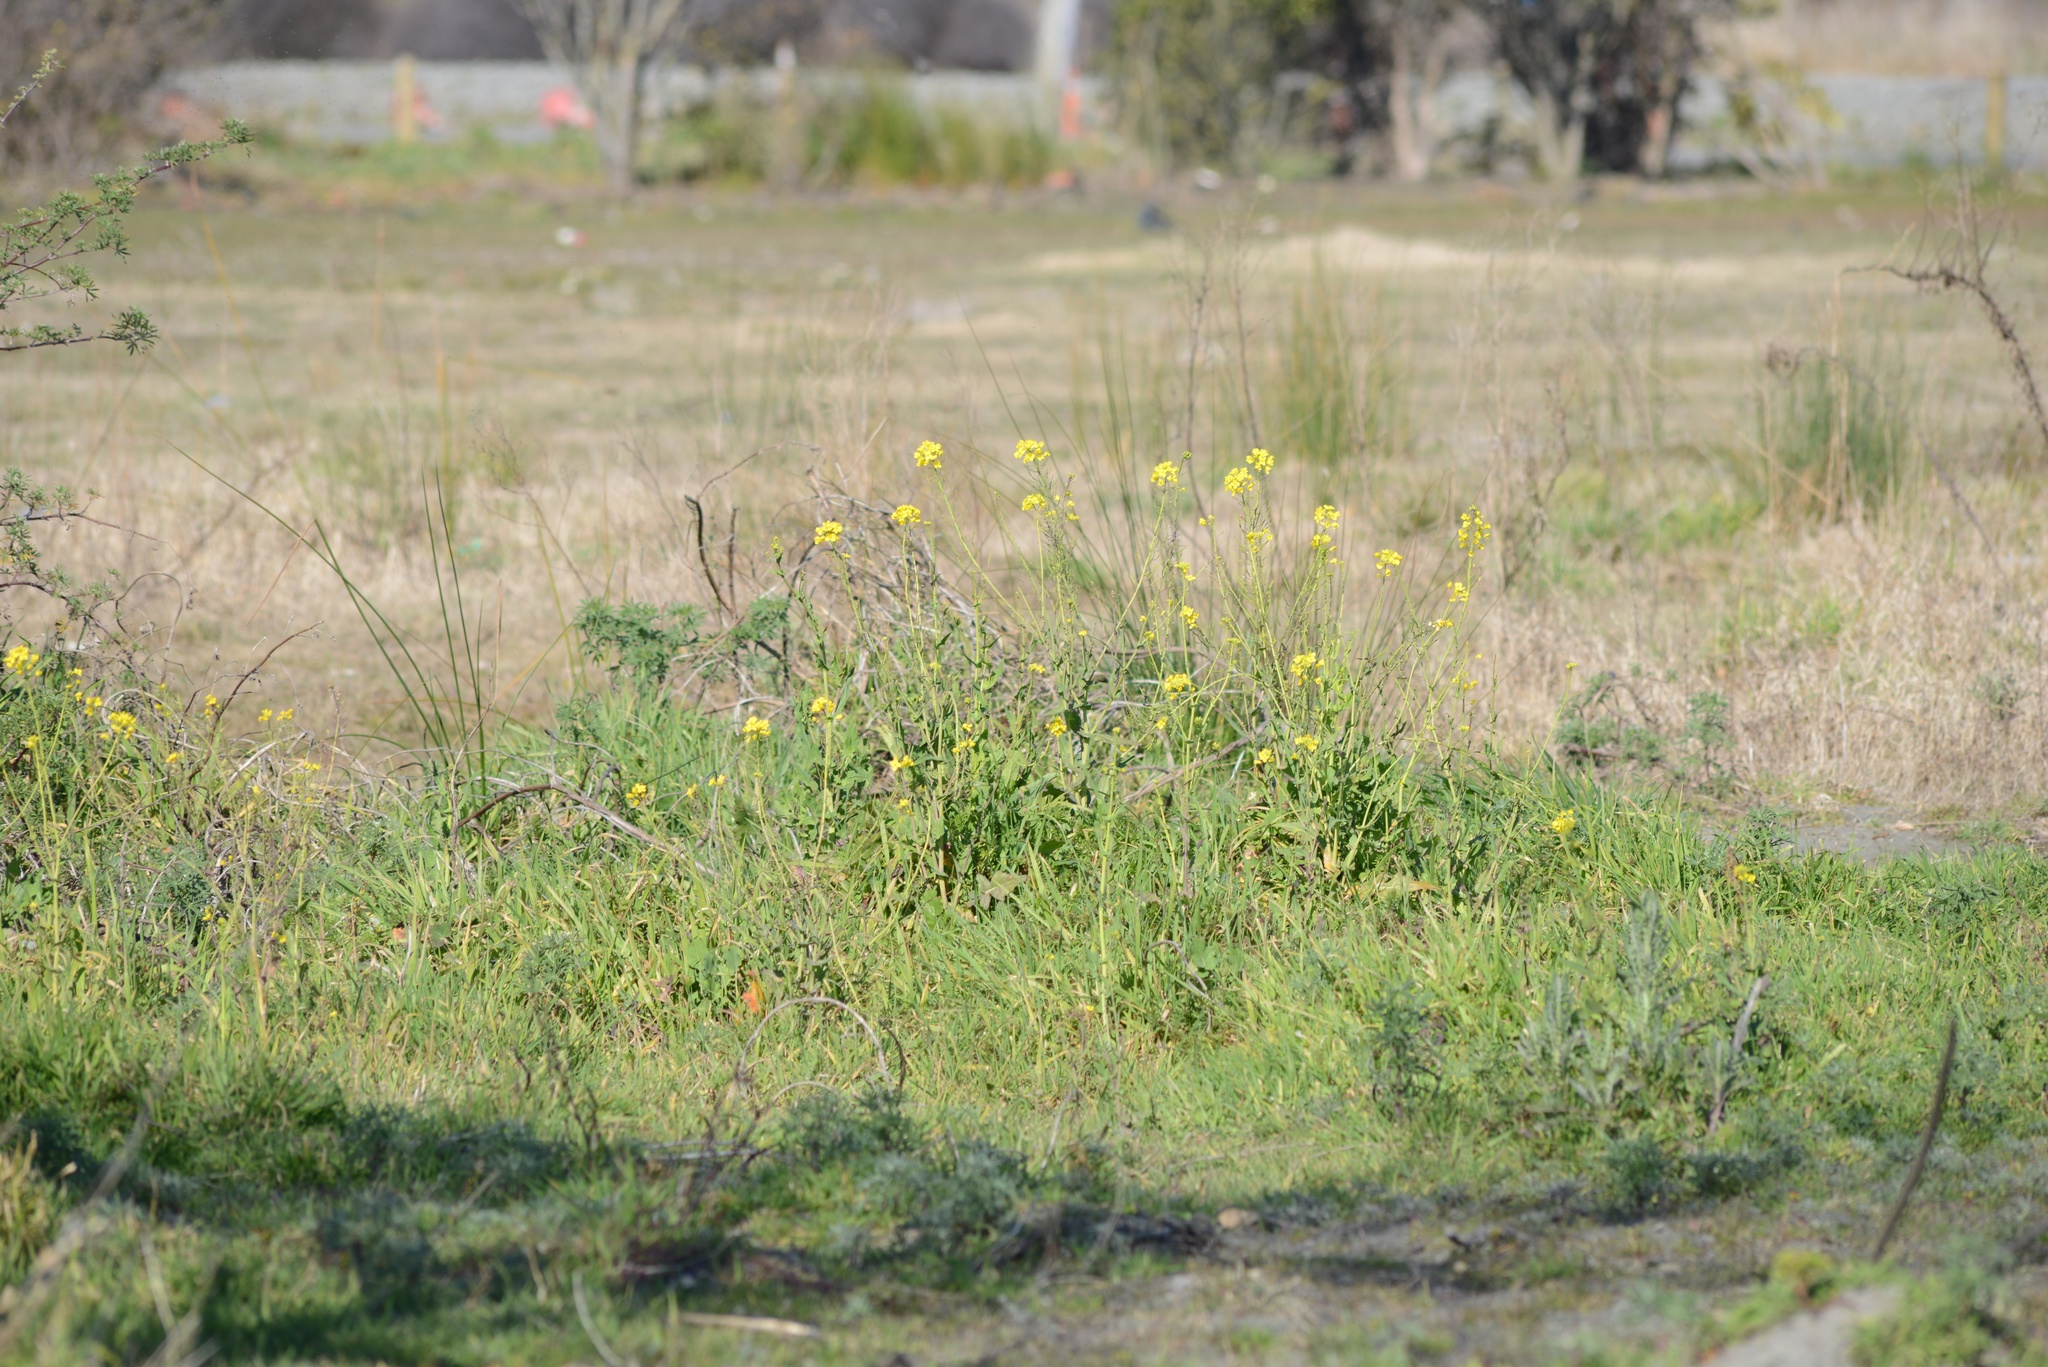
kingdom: Plantae
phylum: Tracheophyta
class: Magnoliopsida
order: Brassicales
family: Brassicaceae
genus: Brassica
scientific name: Brassica rapa
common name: Field mustard
